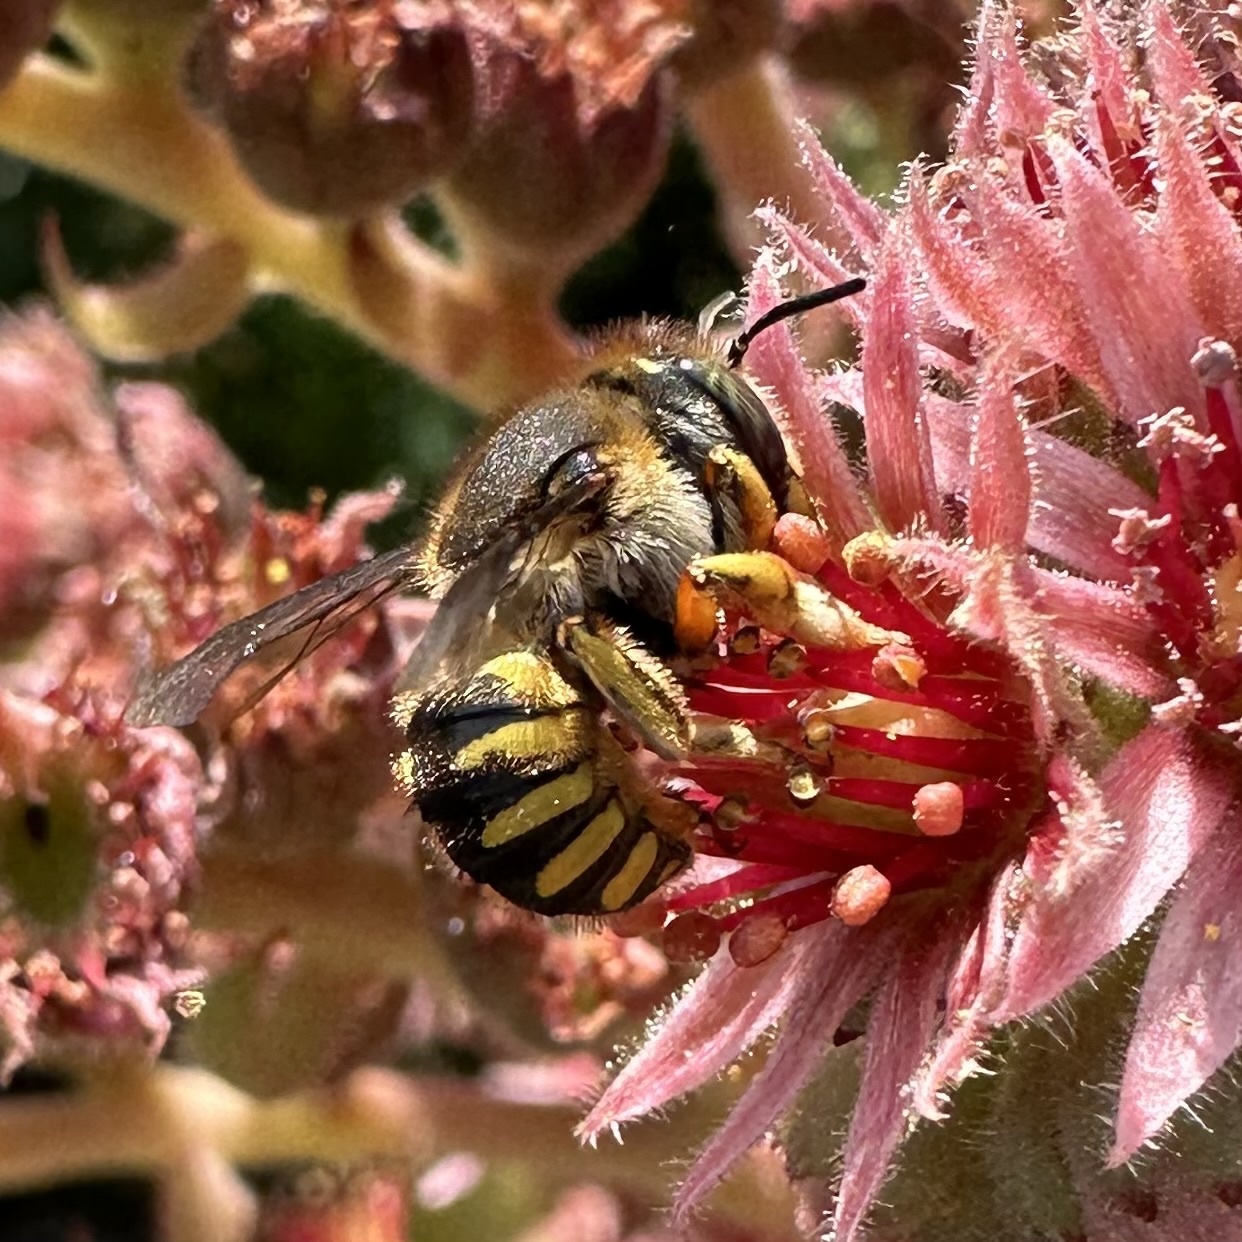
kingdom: Animalia
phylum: Arthropoda
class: Insecta
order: Hymenoptera
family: Megachilidae
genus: Anthidium
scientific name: Anthidium manicatum
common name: Wool carder bee
